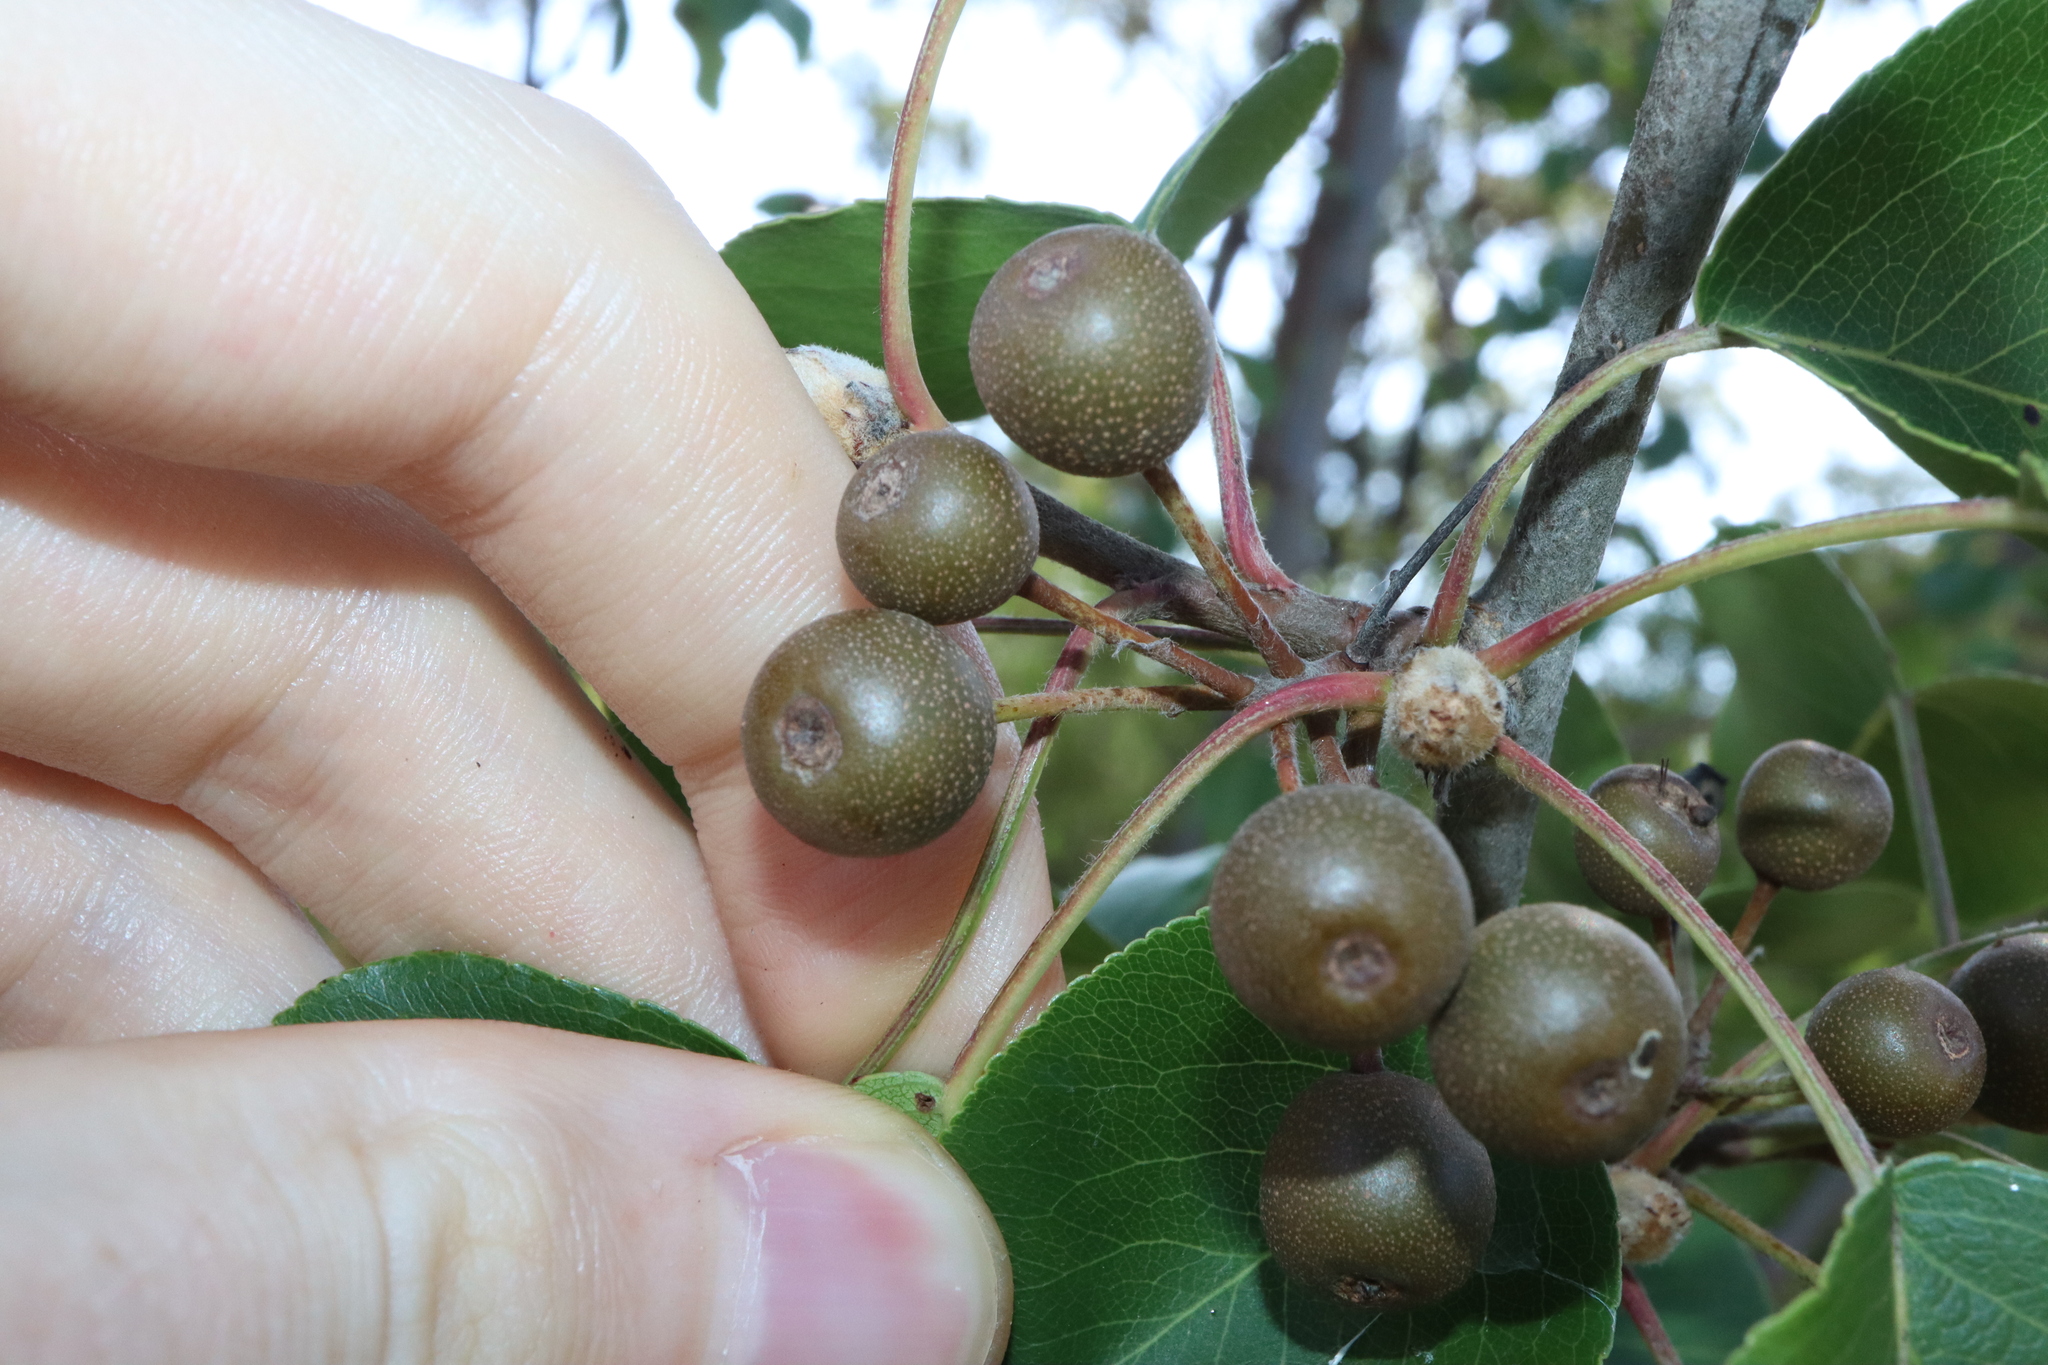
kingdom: Plantae
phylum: Tracheophyta
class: Magnoliopsida
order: Rosales
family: Rosaceae
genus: Pyrus
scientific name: Pyrus calleryana
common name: Callery pear
